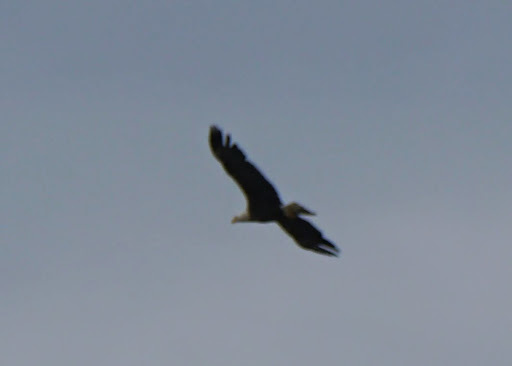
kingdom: Animalia
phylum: Chordata
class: Aves
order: Accipitriformes
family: Accipitridae
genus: Haliaeetus
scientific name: Haliaeetus leucocephalus
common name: Bald eagle
